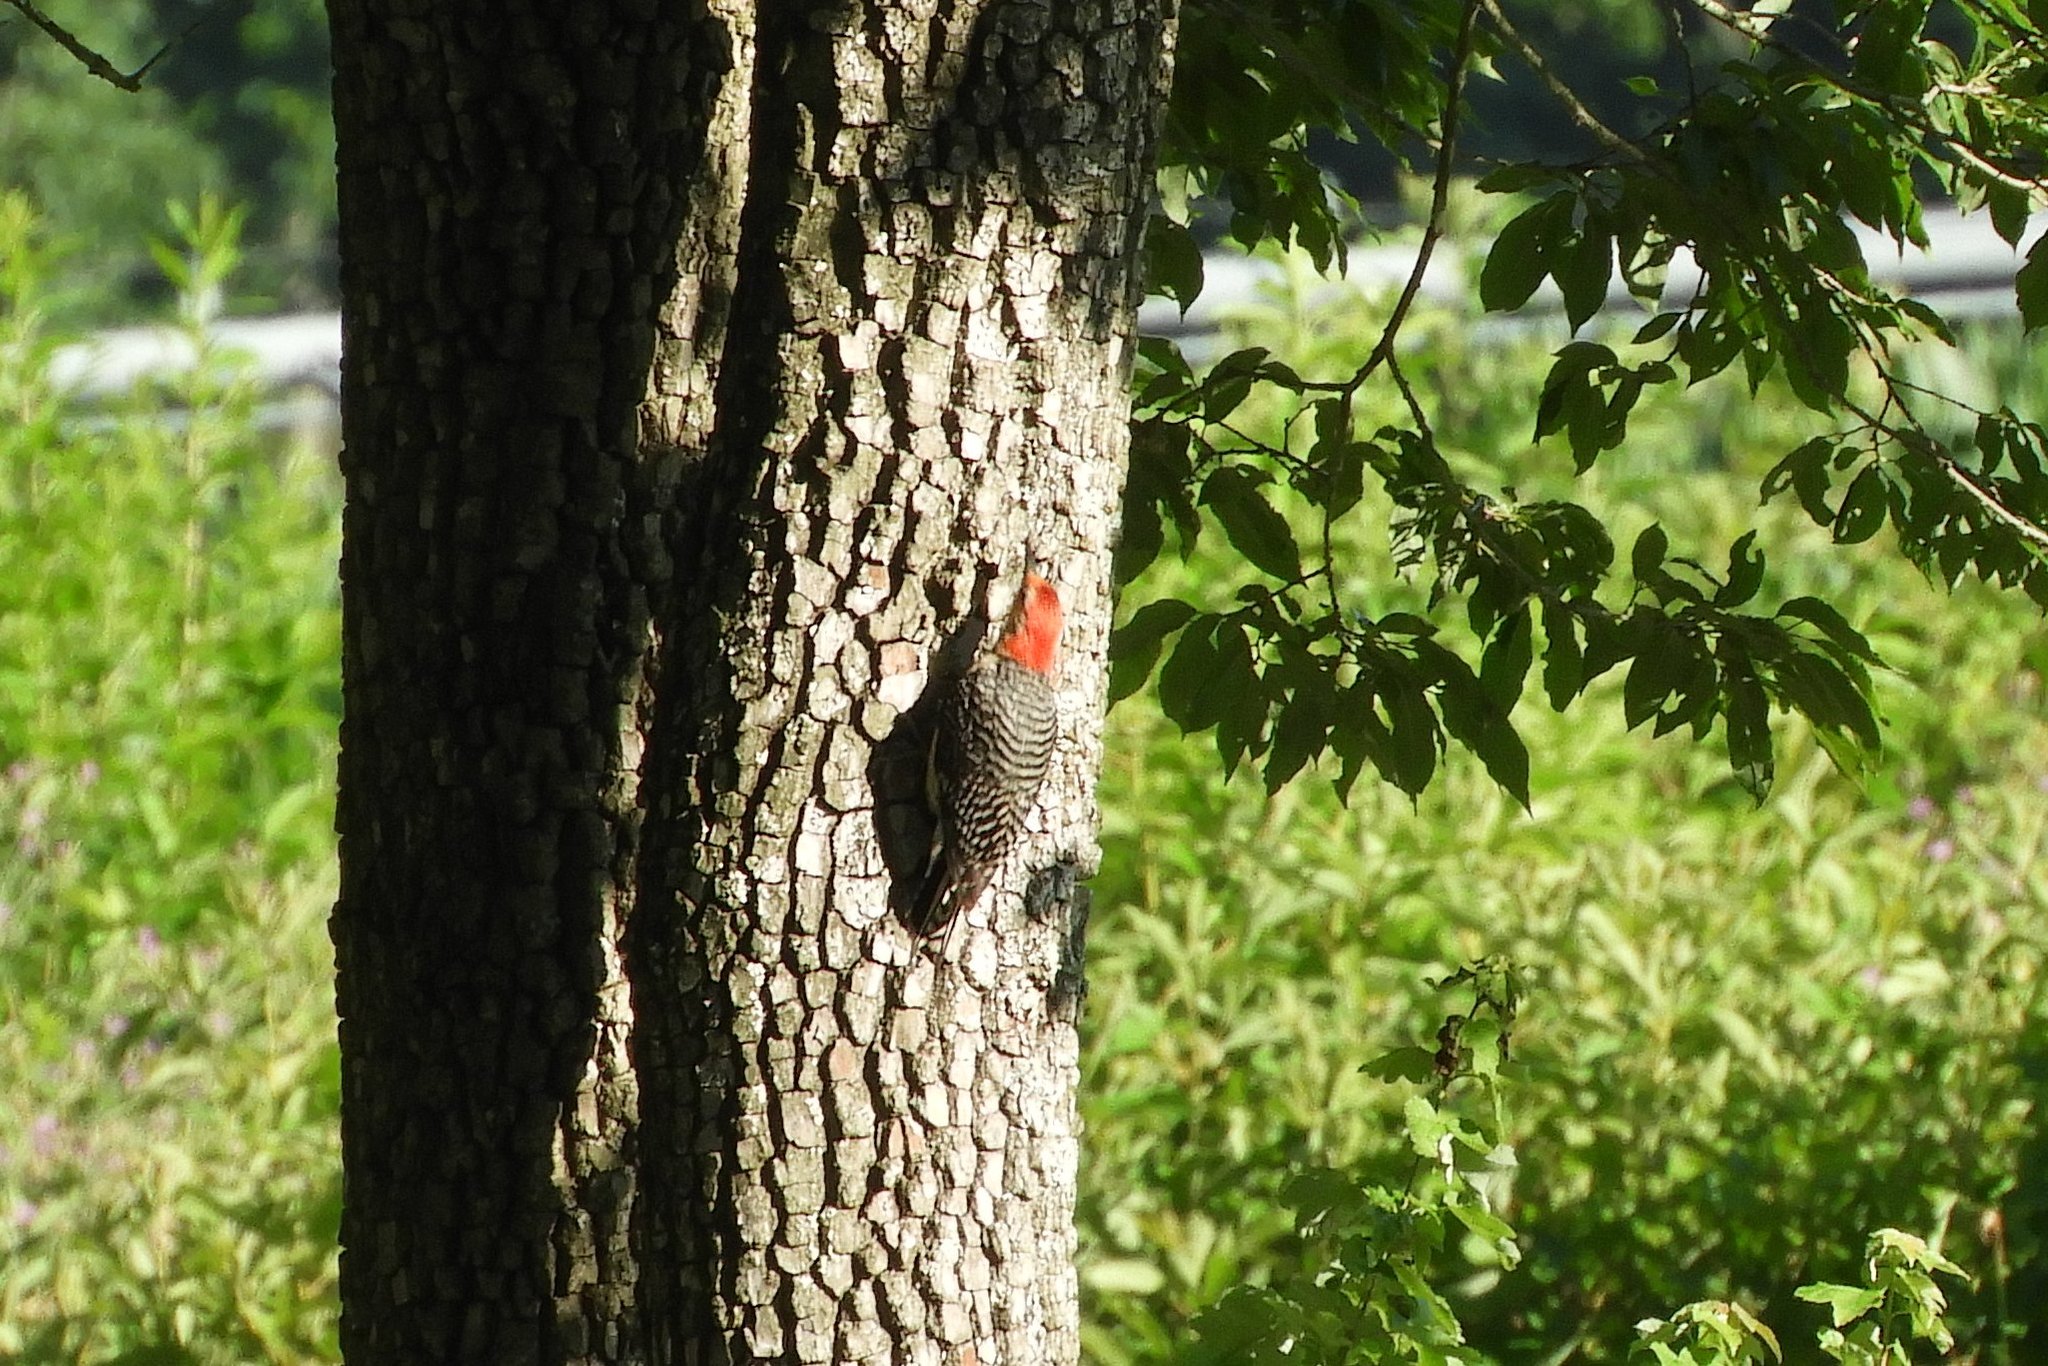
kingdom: Animalia
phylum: Chordata
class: Aves
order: Piciformes
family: Picidae
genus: Melanerpes
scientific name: Melanerpes carolinus
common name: Red-bellied woodpecker
